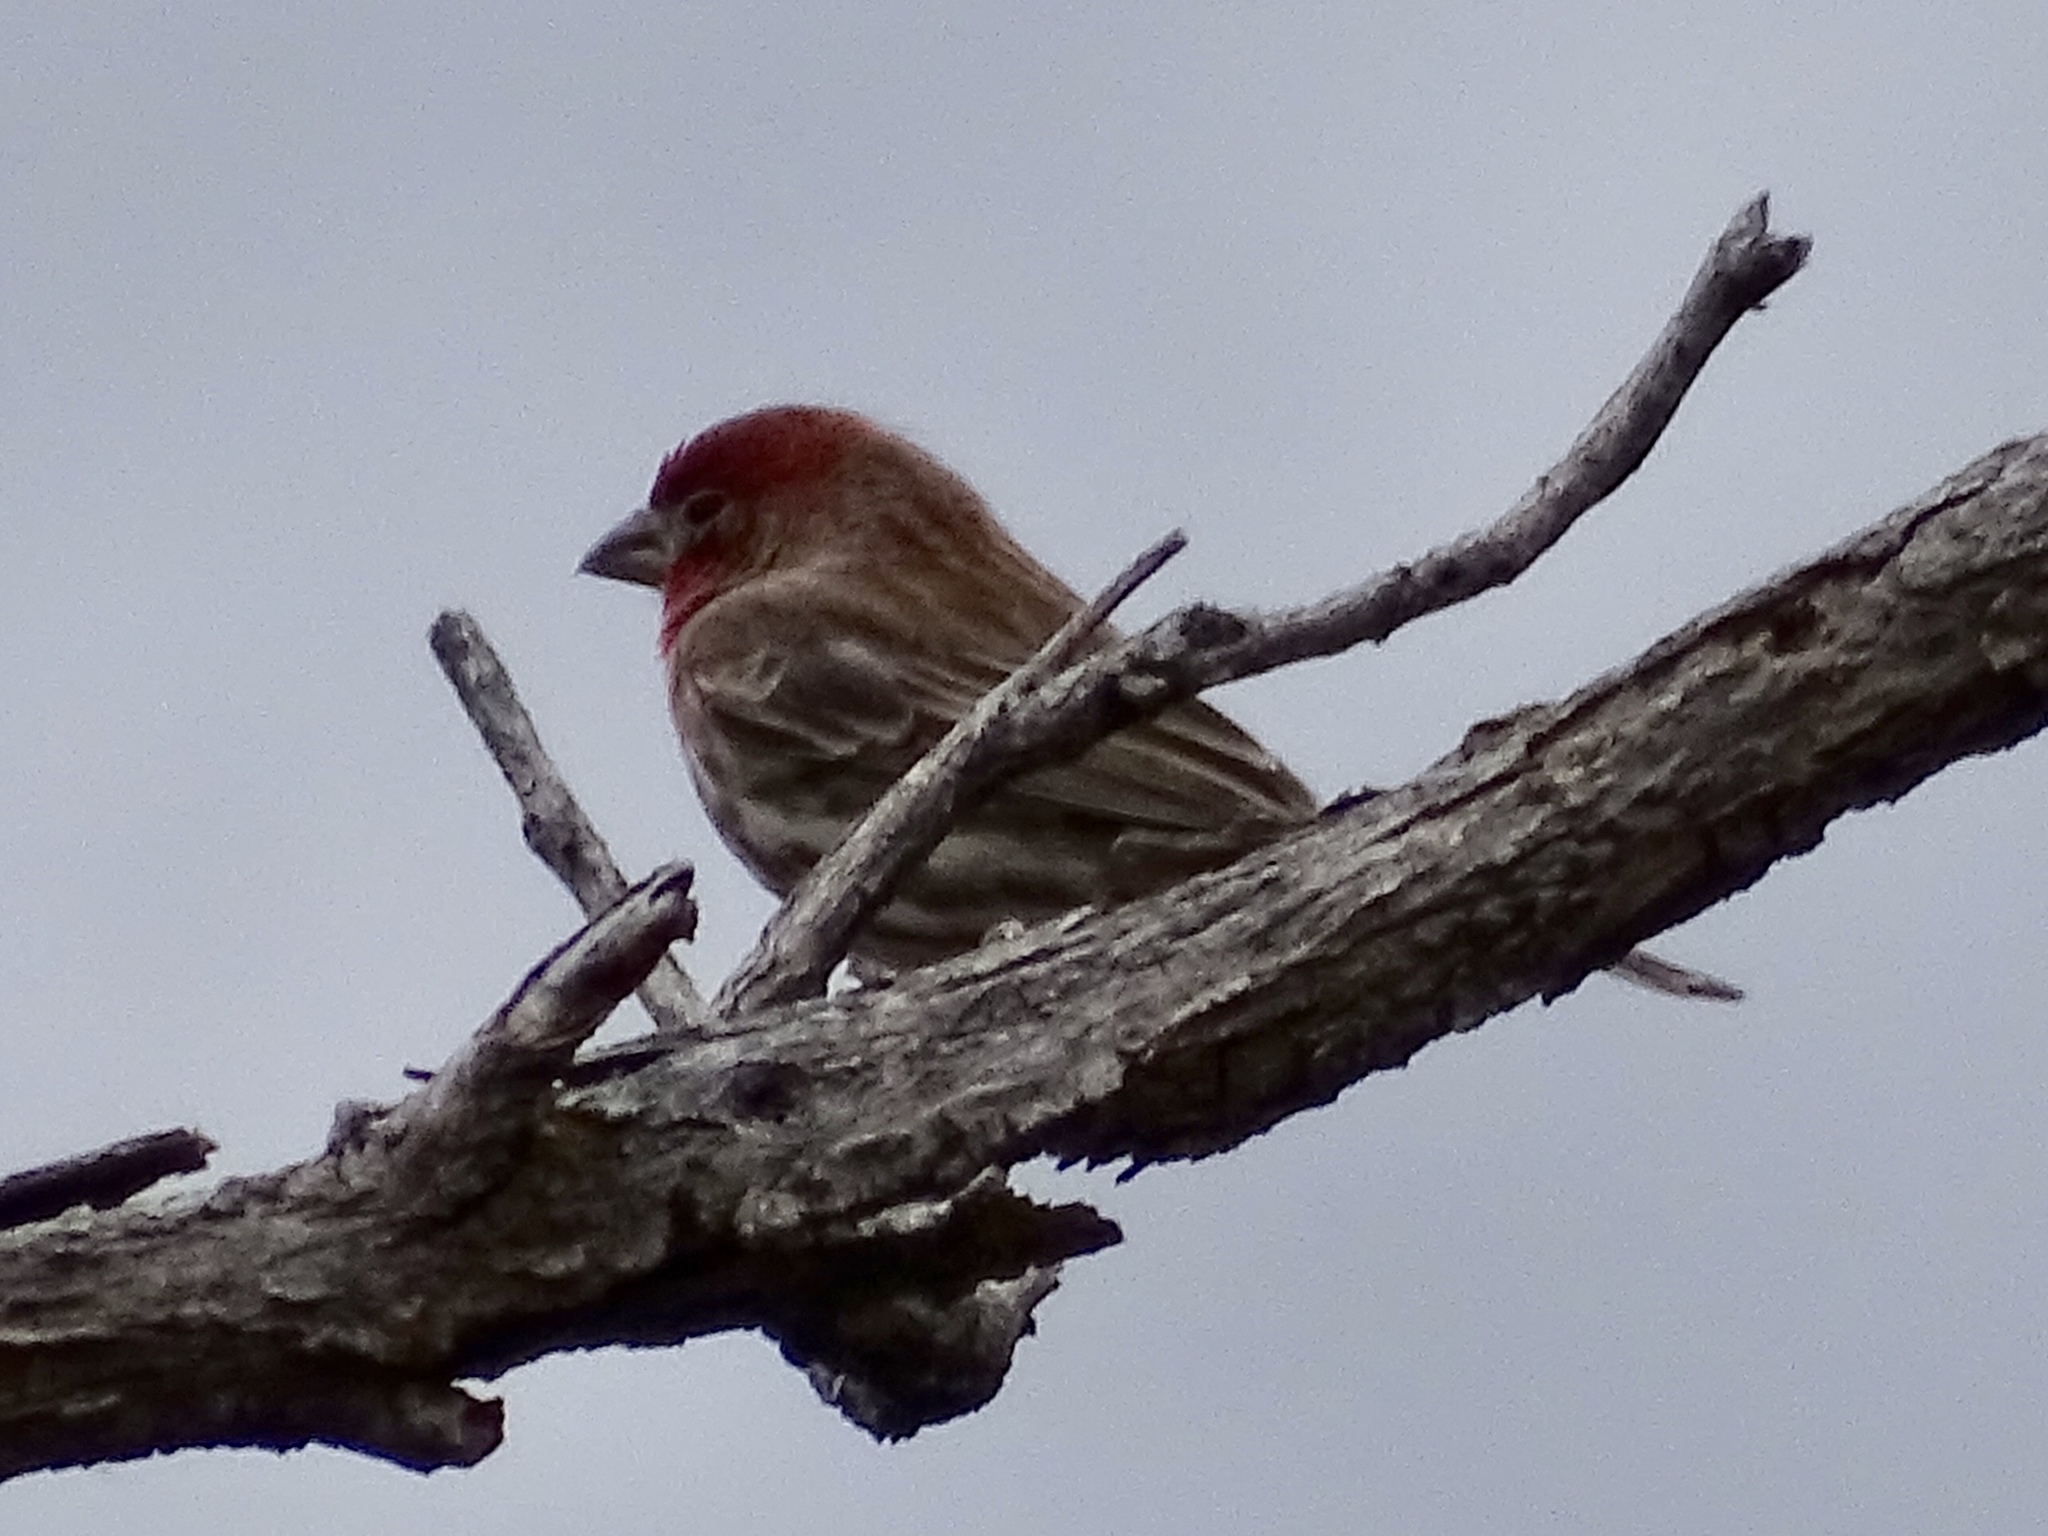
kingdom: Animalia
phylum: Chordata
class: Aves
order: Passeriformes
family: Fringillidae
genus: Haemorhous
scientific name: Haemorhous mexicanus
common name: House finch
